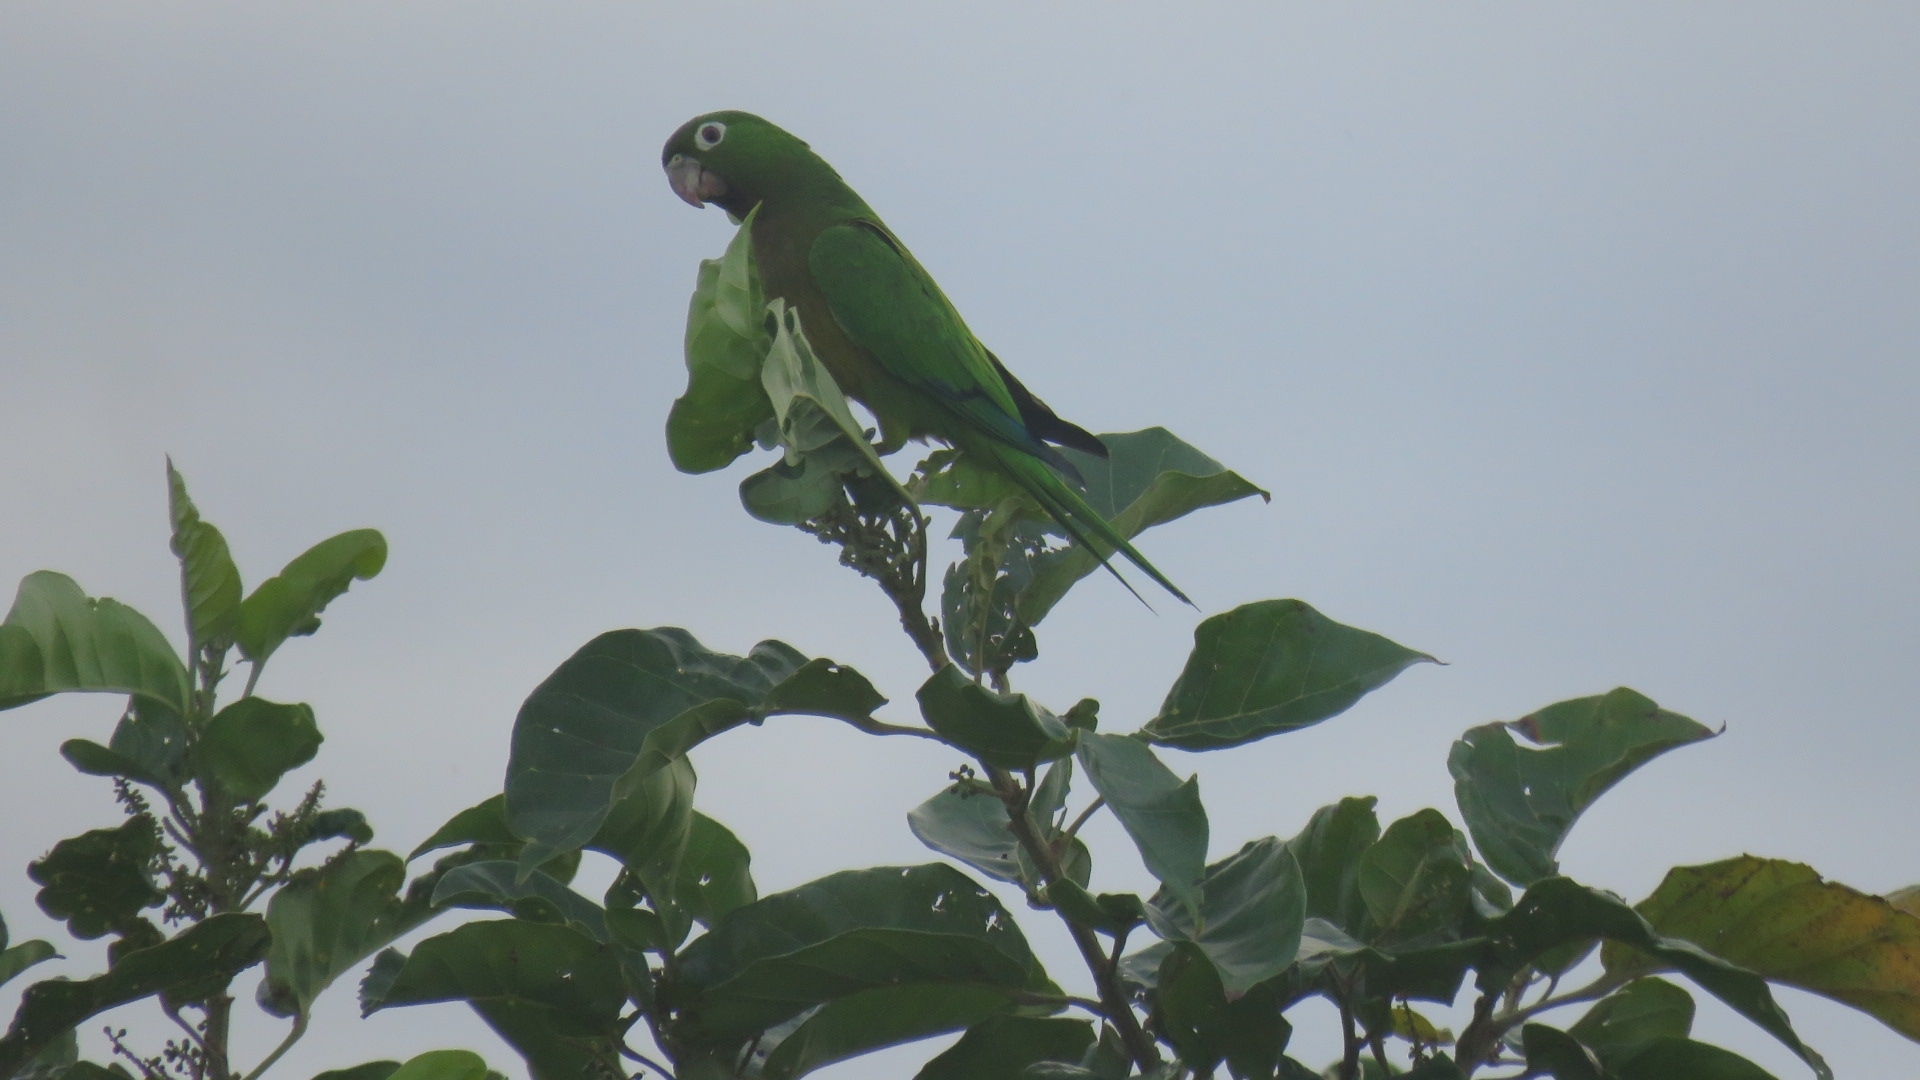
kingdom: Animalia
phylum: Chordata
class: Aves
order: Psittaciformes
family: Psittacidae
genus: Aratinga
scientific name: Aratinga nana
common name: Olive-throated parakeet
